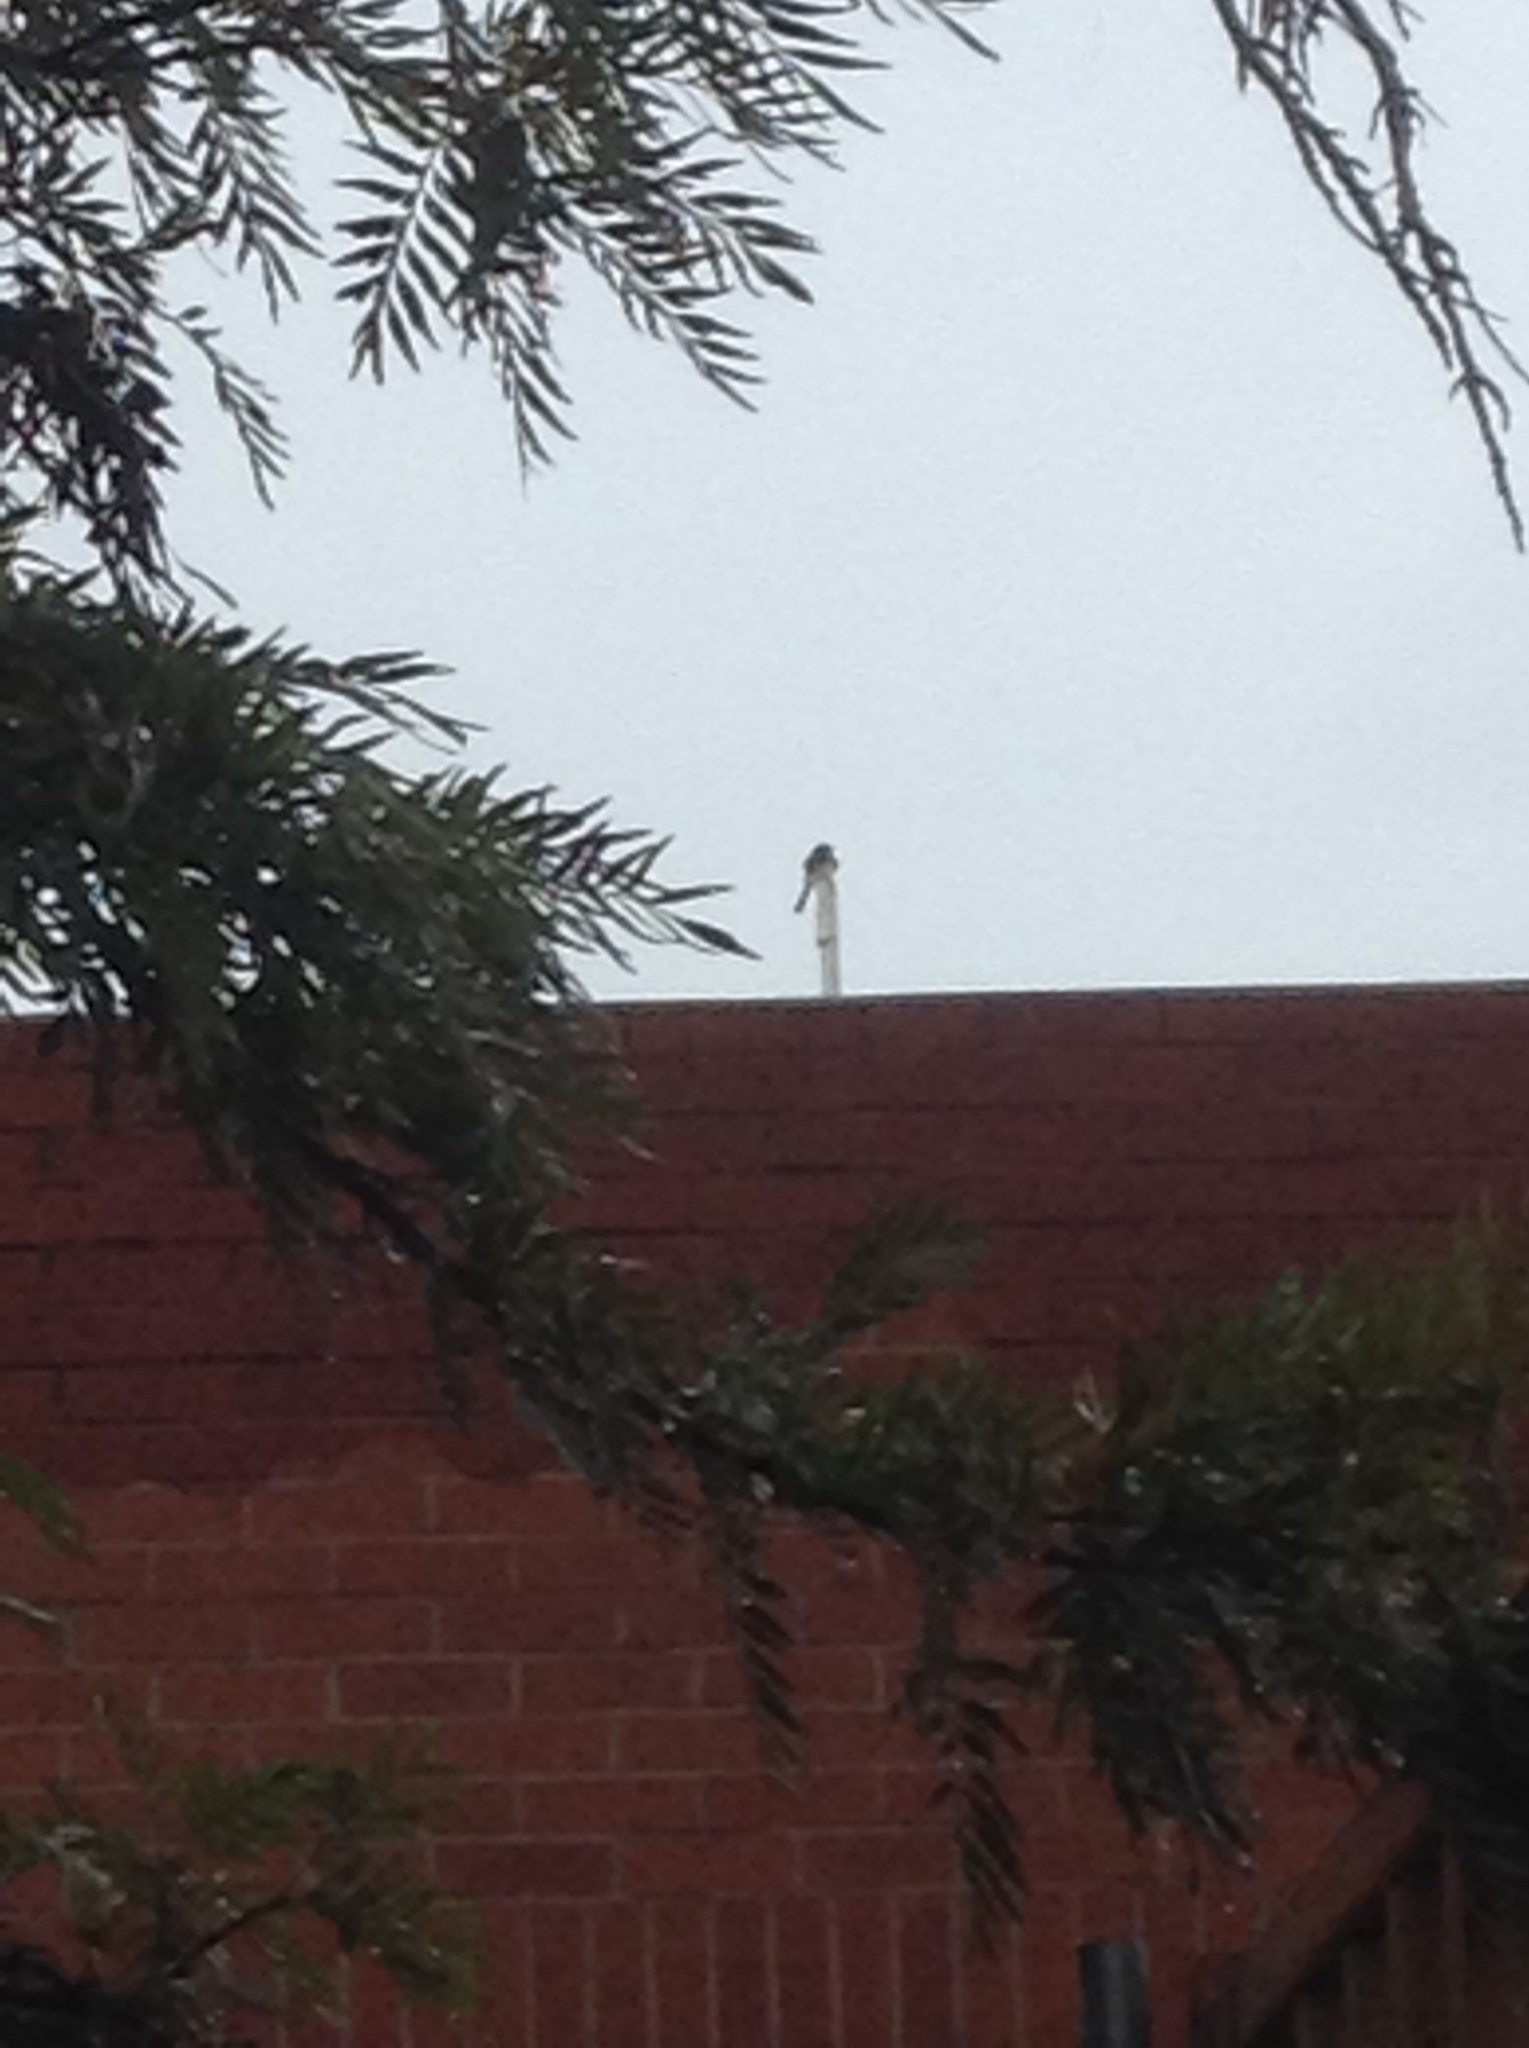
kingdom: Animalia
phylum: Chordata
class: Aves
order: Passeriformes
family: Tyrannidae
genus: Sayornis
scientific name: Sayornis nigricans
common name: Black phoebe
